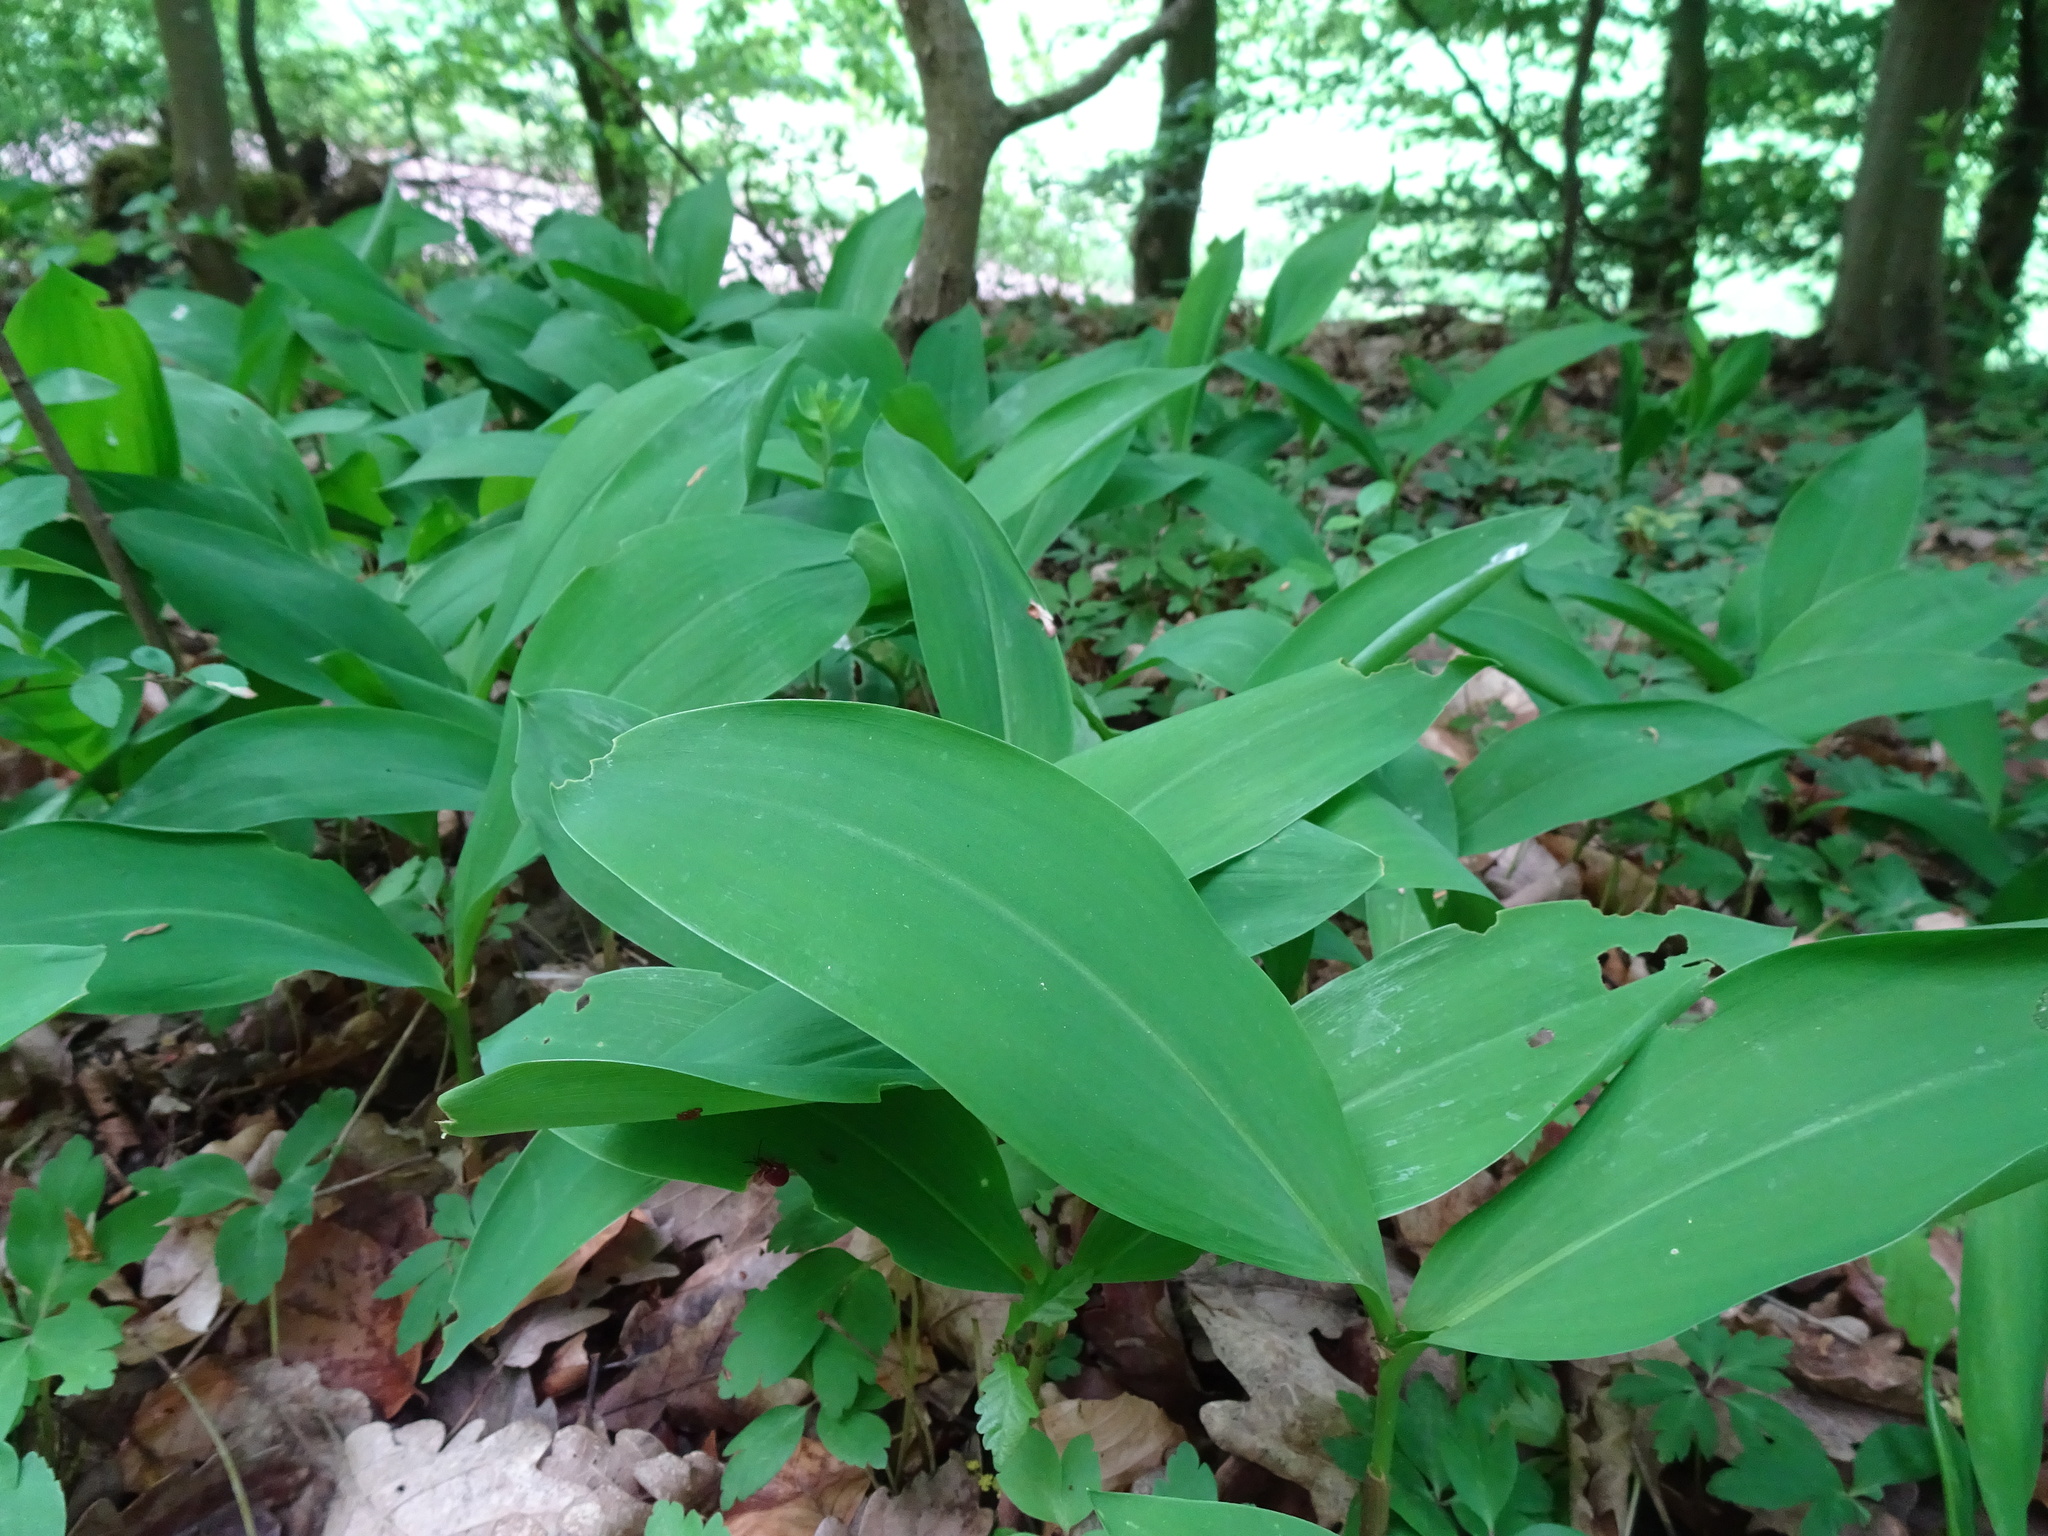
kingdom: Plantae
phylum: Tracheophyta
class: Liliopsida
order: Asparagales
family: Asparagaceae
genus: Convallaria
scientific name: Convallaria majalis
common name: Lily-of-the-valley
